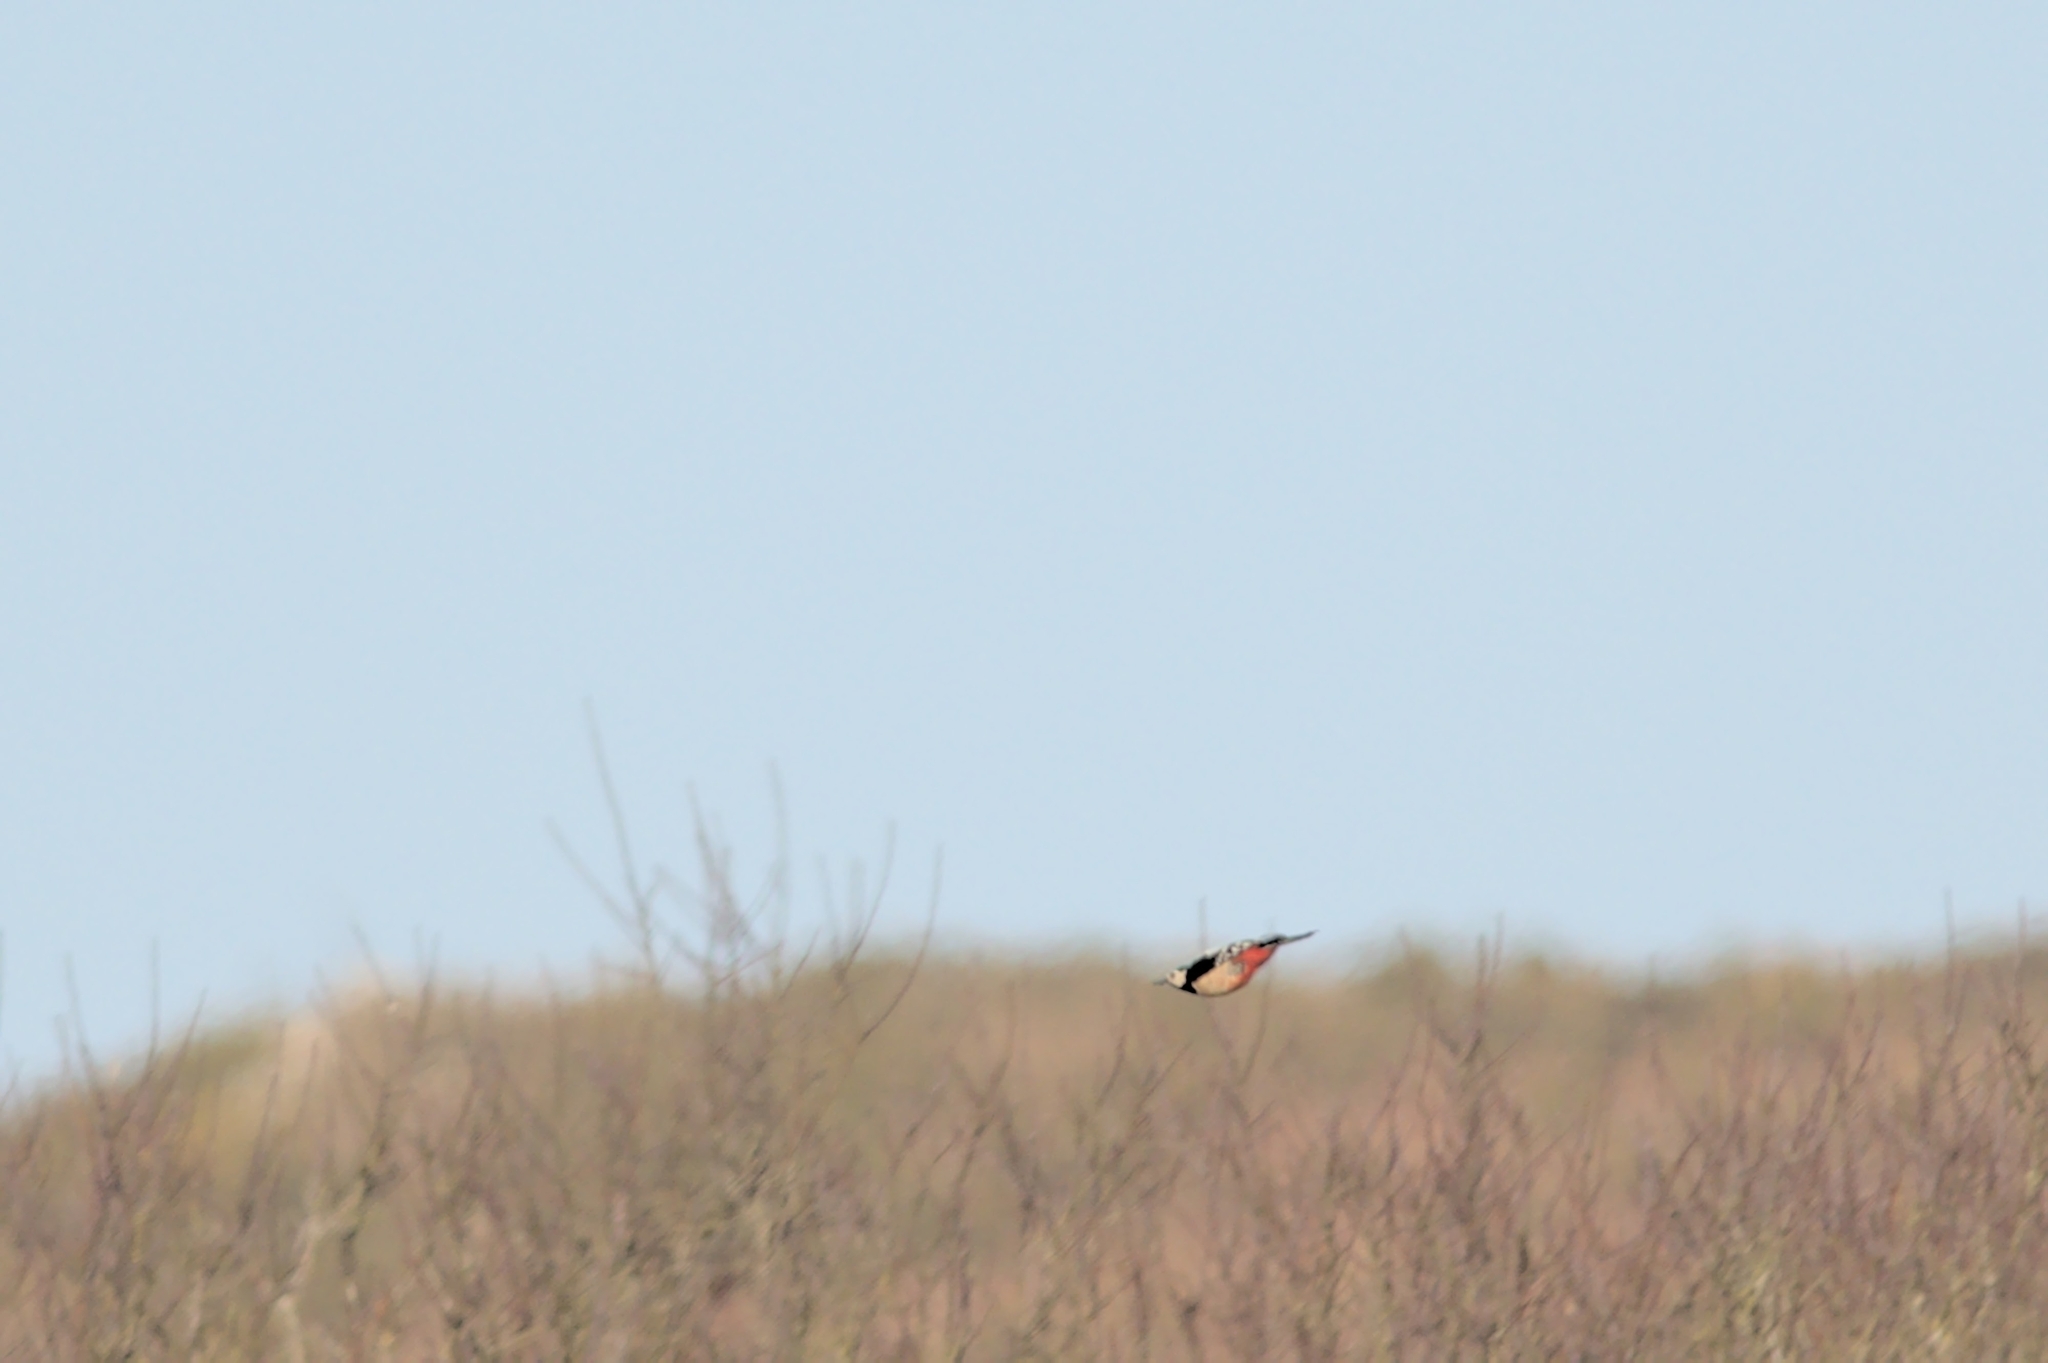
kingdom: Animalia
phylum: Chordata
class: Aves
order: Piciformes
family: Picidae
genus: Dendrocopos
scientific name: Dendrocopos major
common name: Great spotted woodpecker
